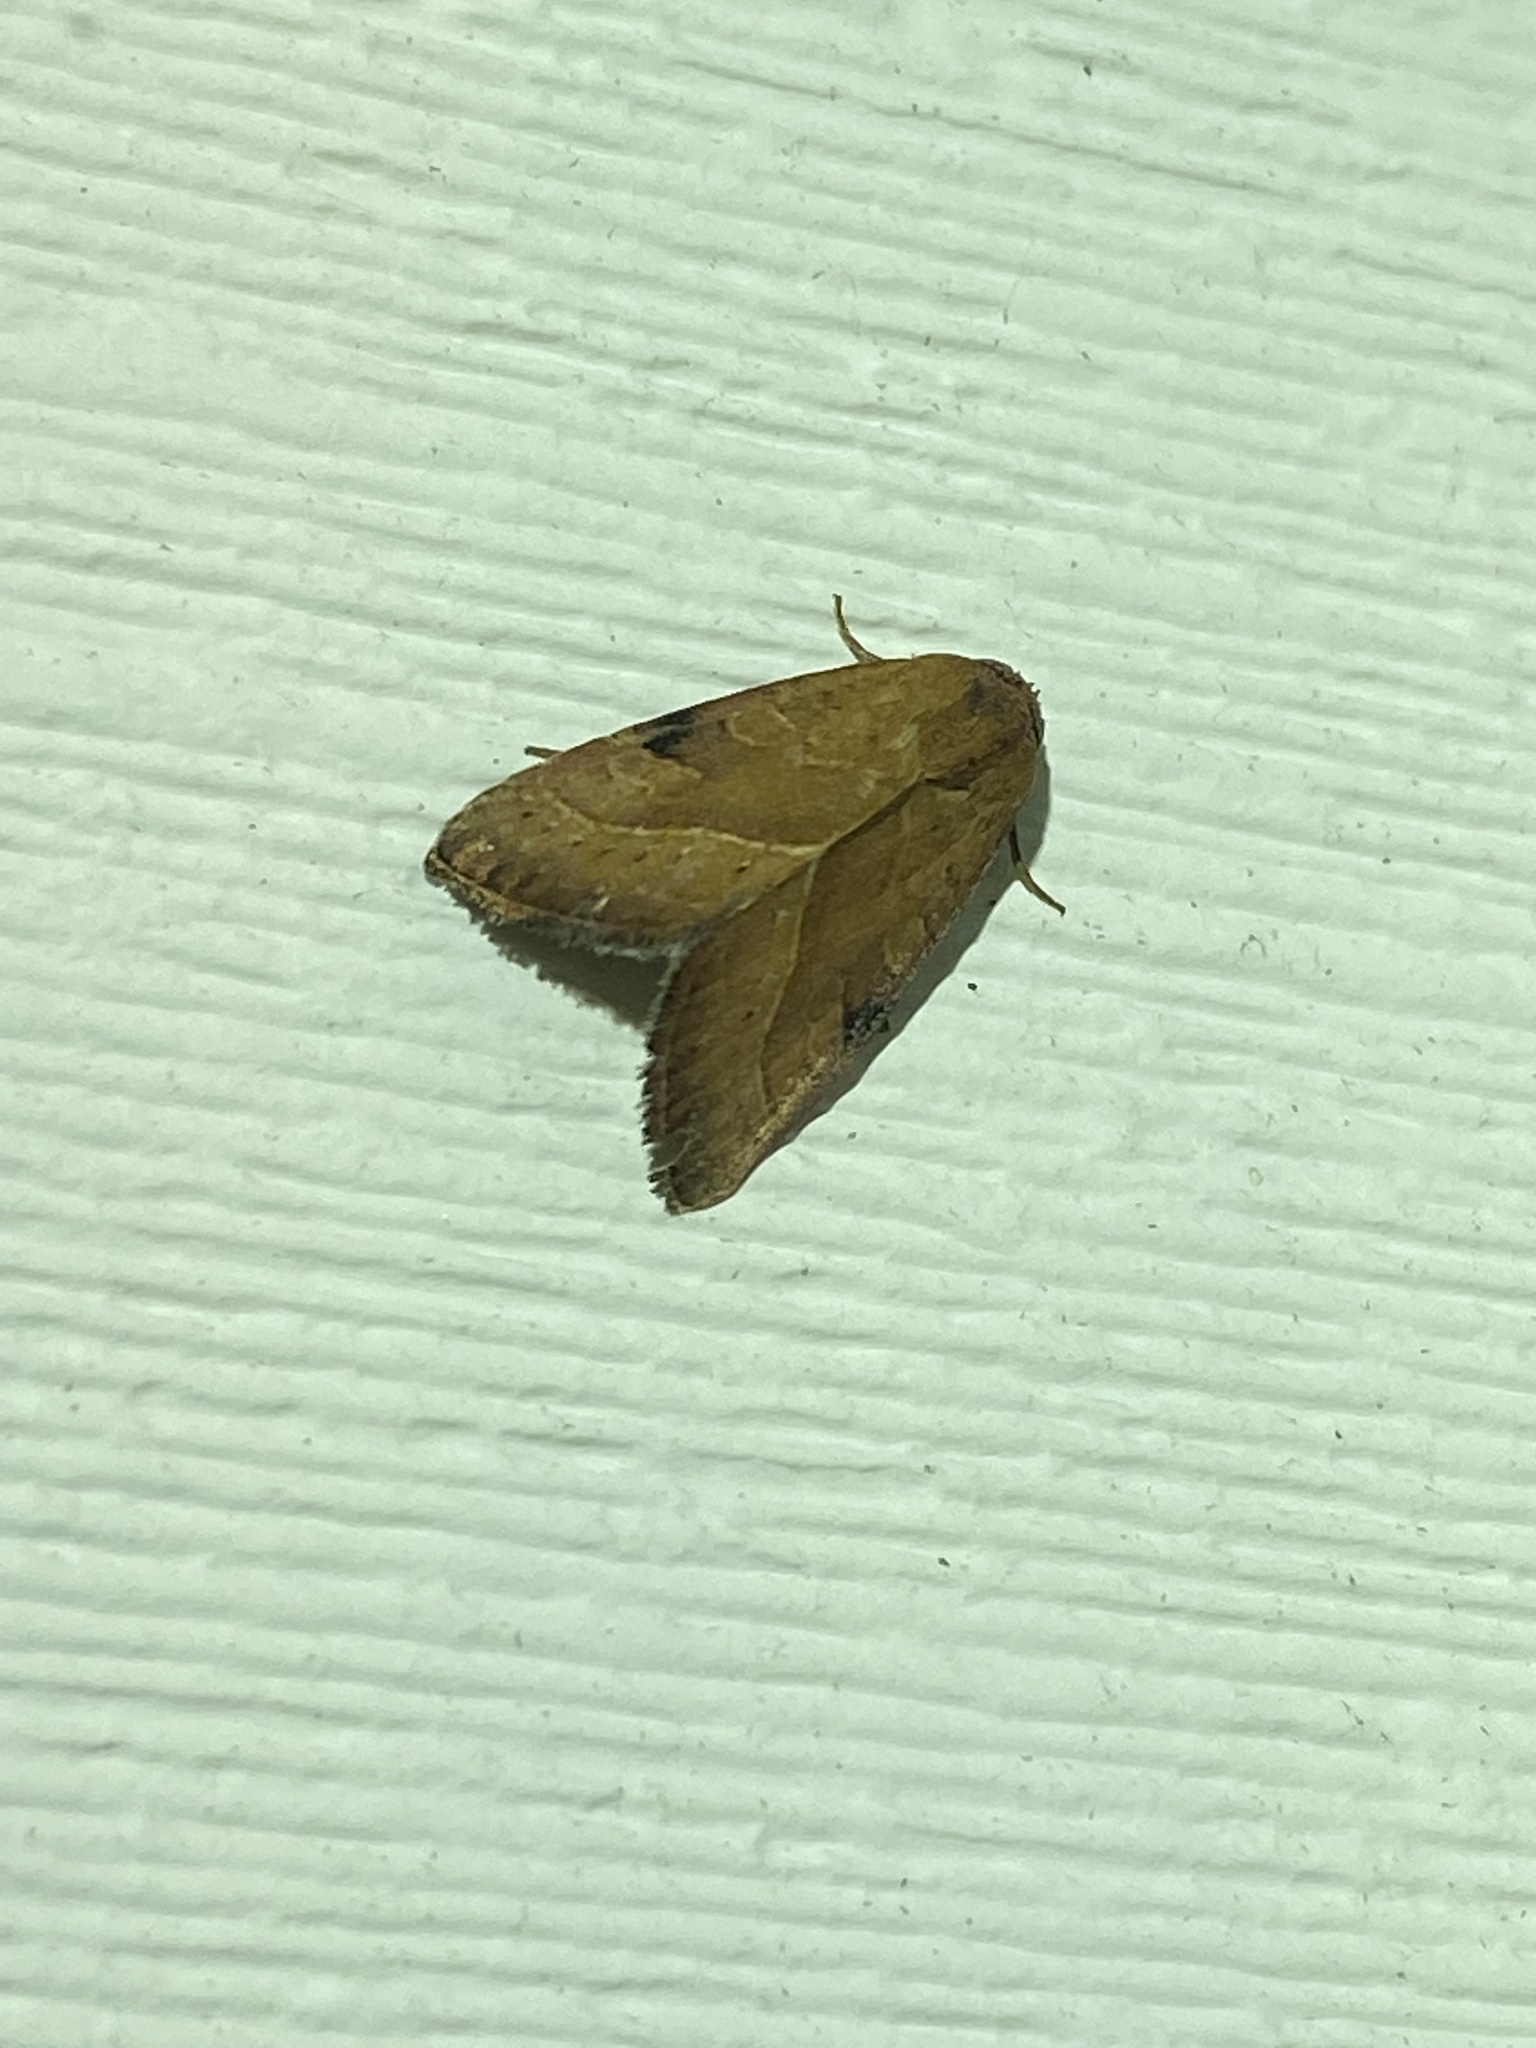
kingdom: Animalia
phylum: Arthropoda
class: Insecta
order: Lepidoptera
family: Noctuidae
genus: Galgula
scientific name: Galgula partita
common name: Wedgeling
